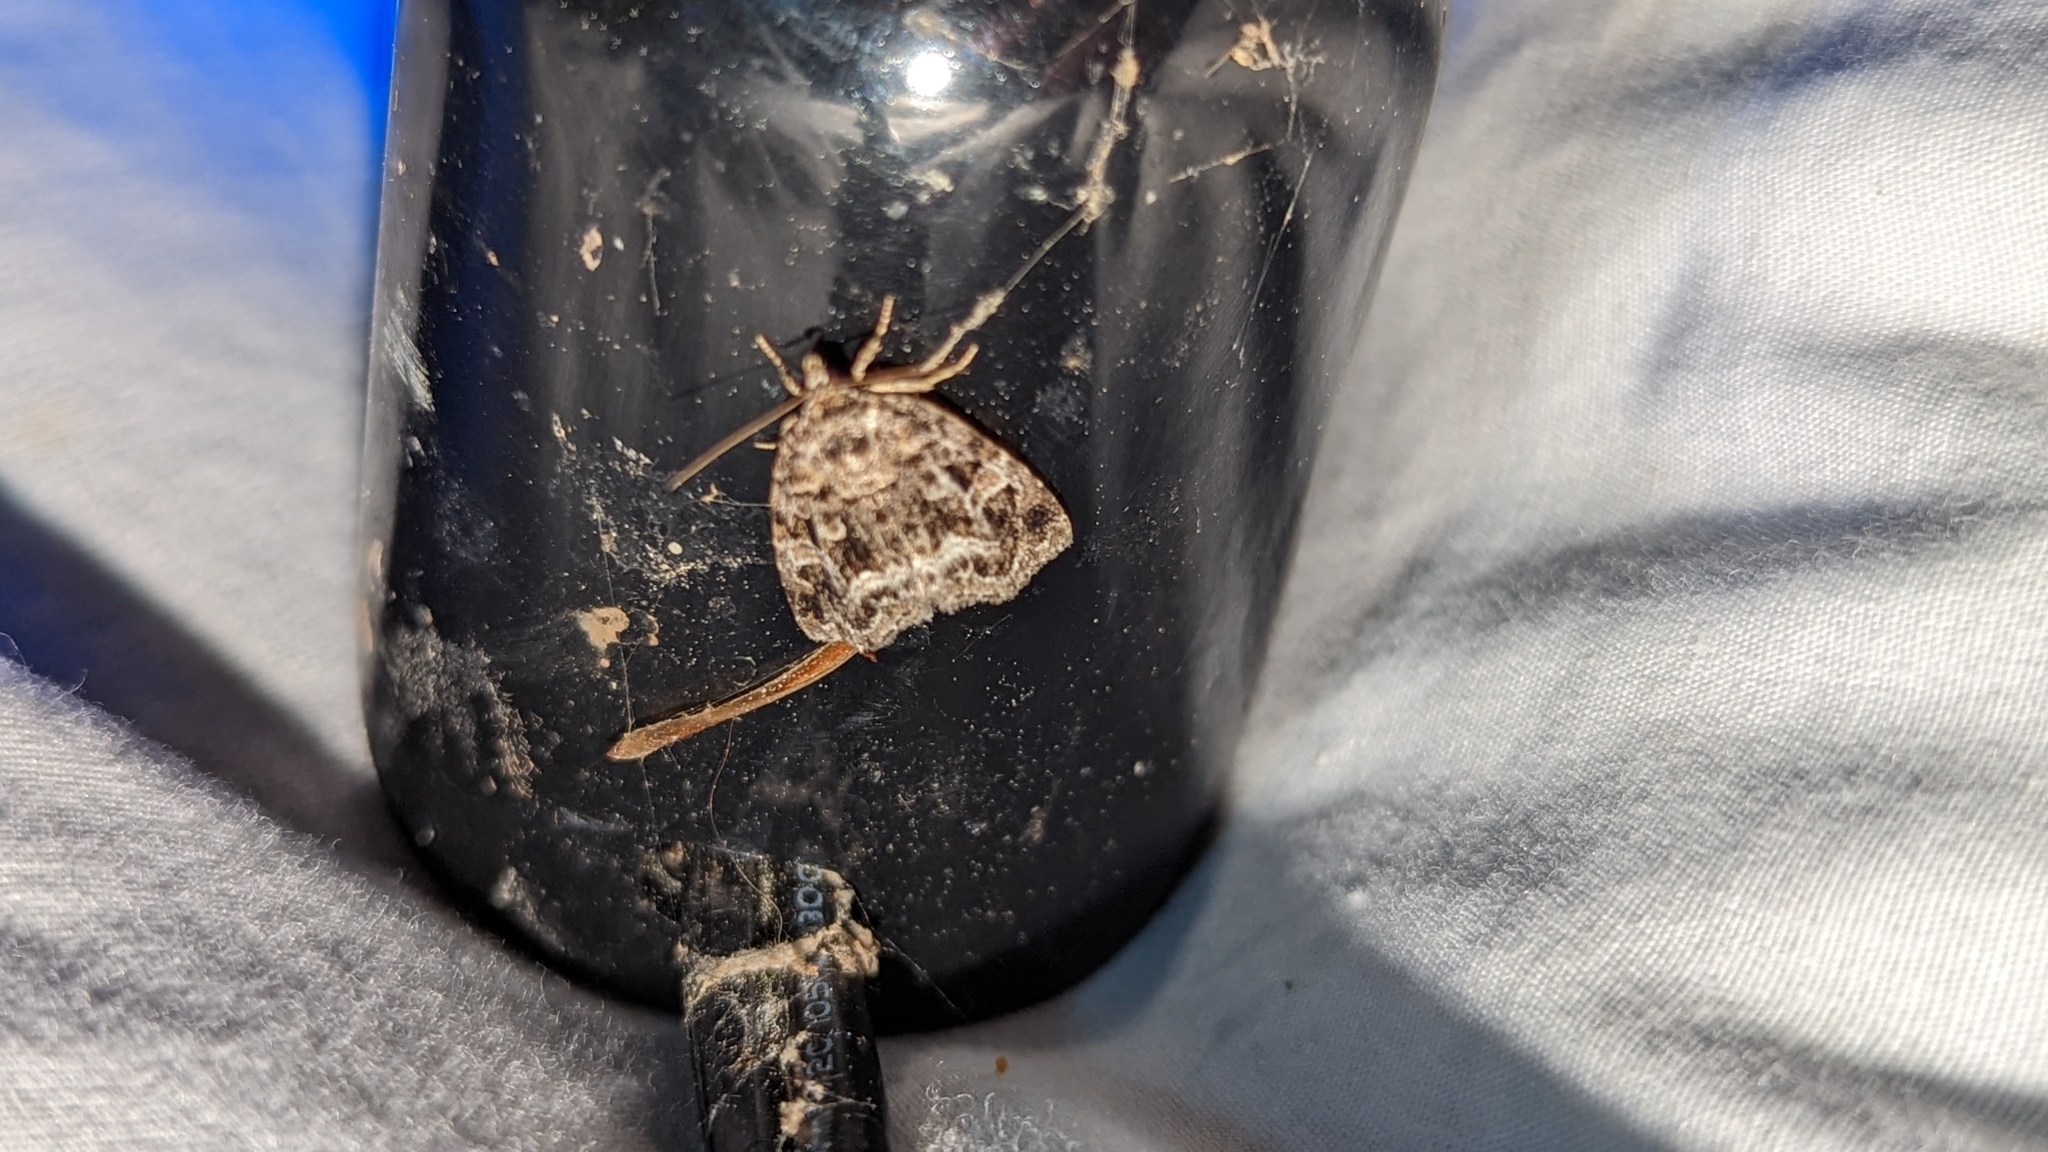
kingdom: Animalia
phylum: Arthropoda
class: Insecta
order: Lepidoptera
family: Noctuidae
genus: Protodeltote
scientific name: Protodeltote muscosula
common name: Large mossy glyph
